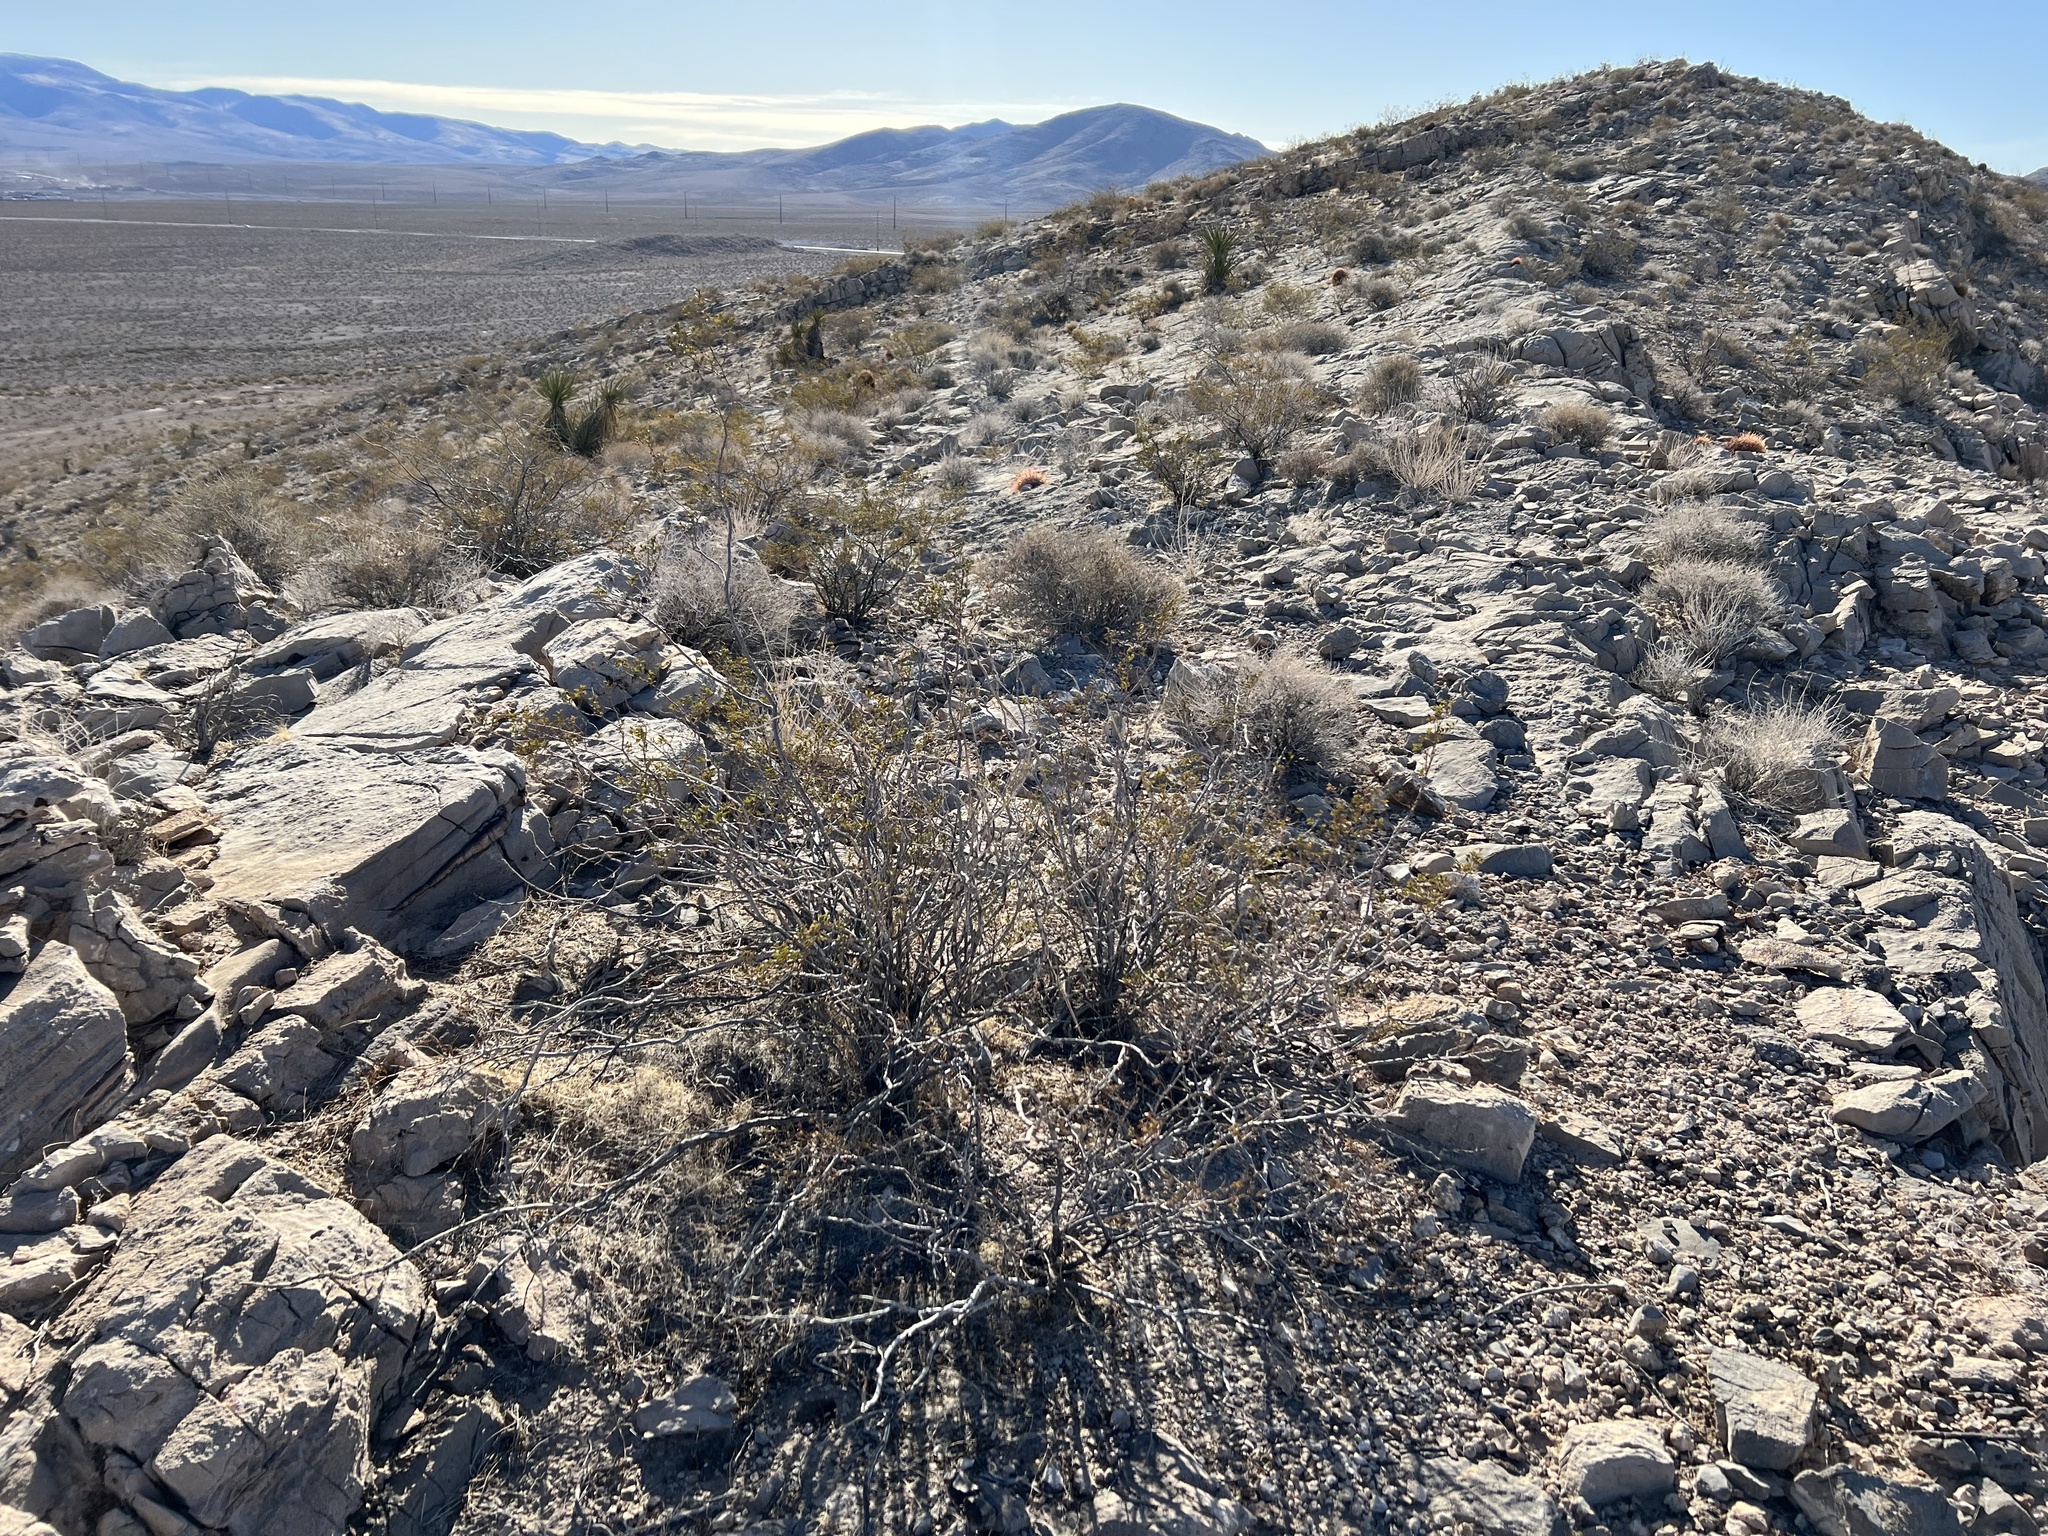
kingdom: Plantae
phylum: Tracheophyta
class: Magnoliopsida
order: Zygophyllales
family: Zygophyllaceae
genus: Larrea
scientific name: Larrea tridentata
